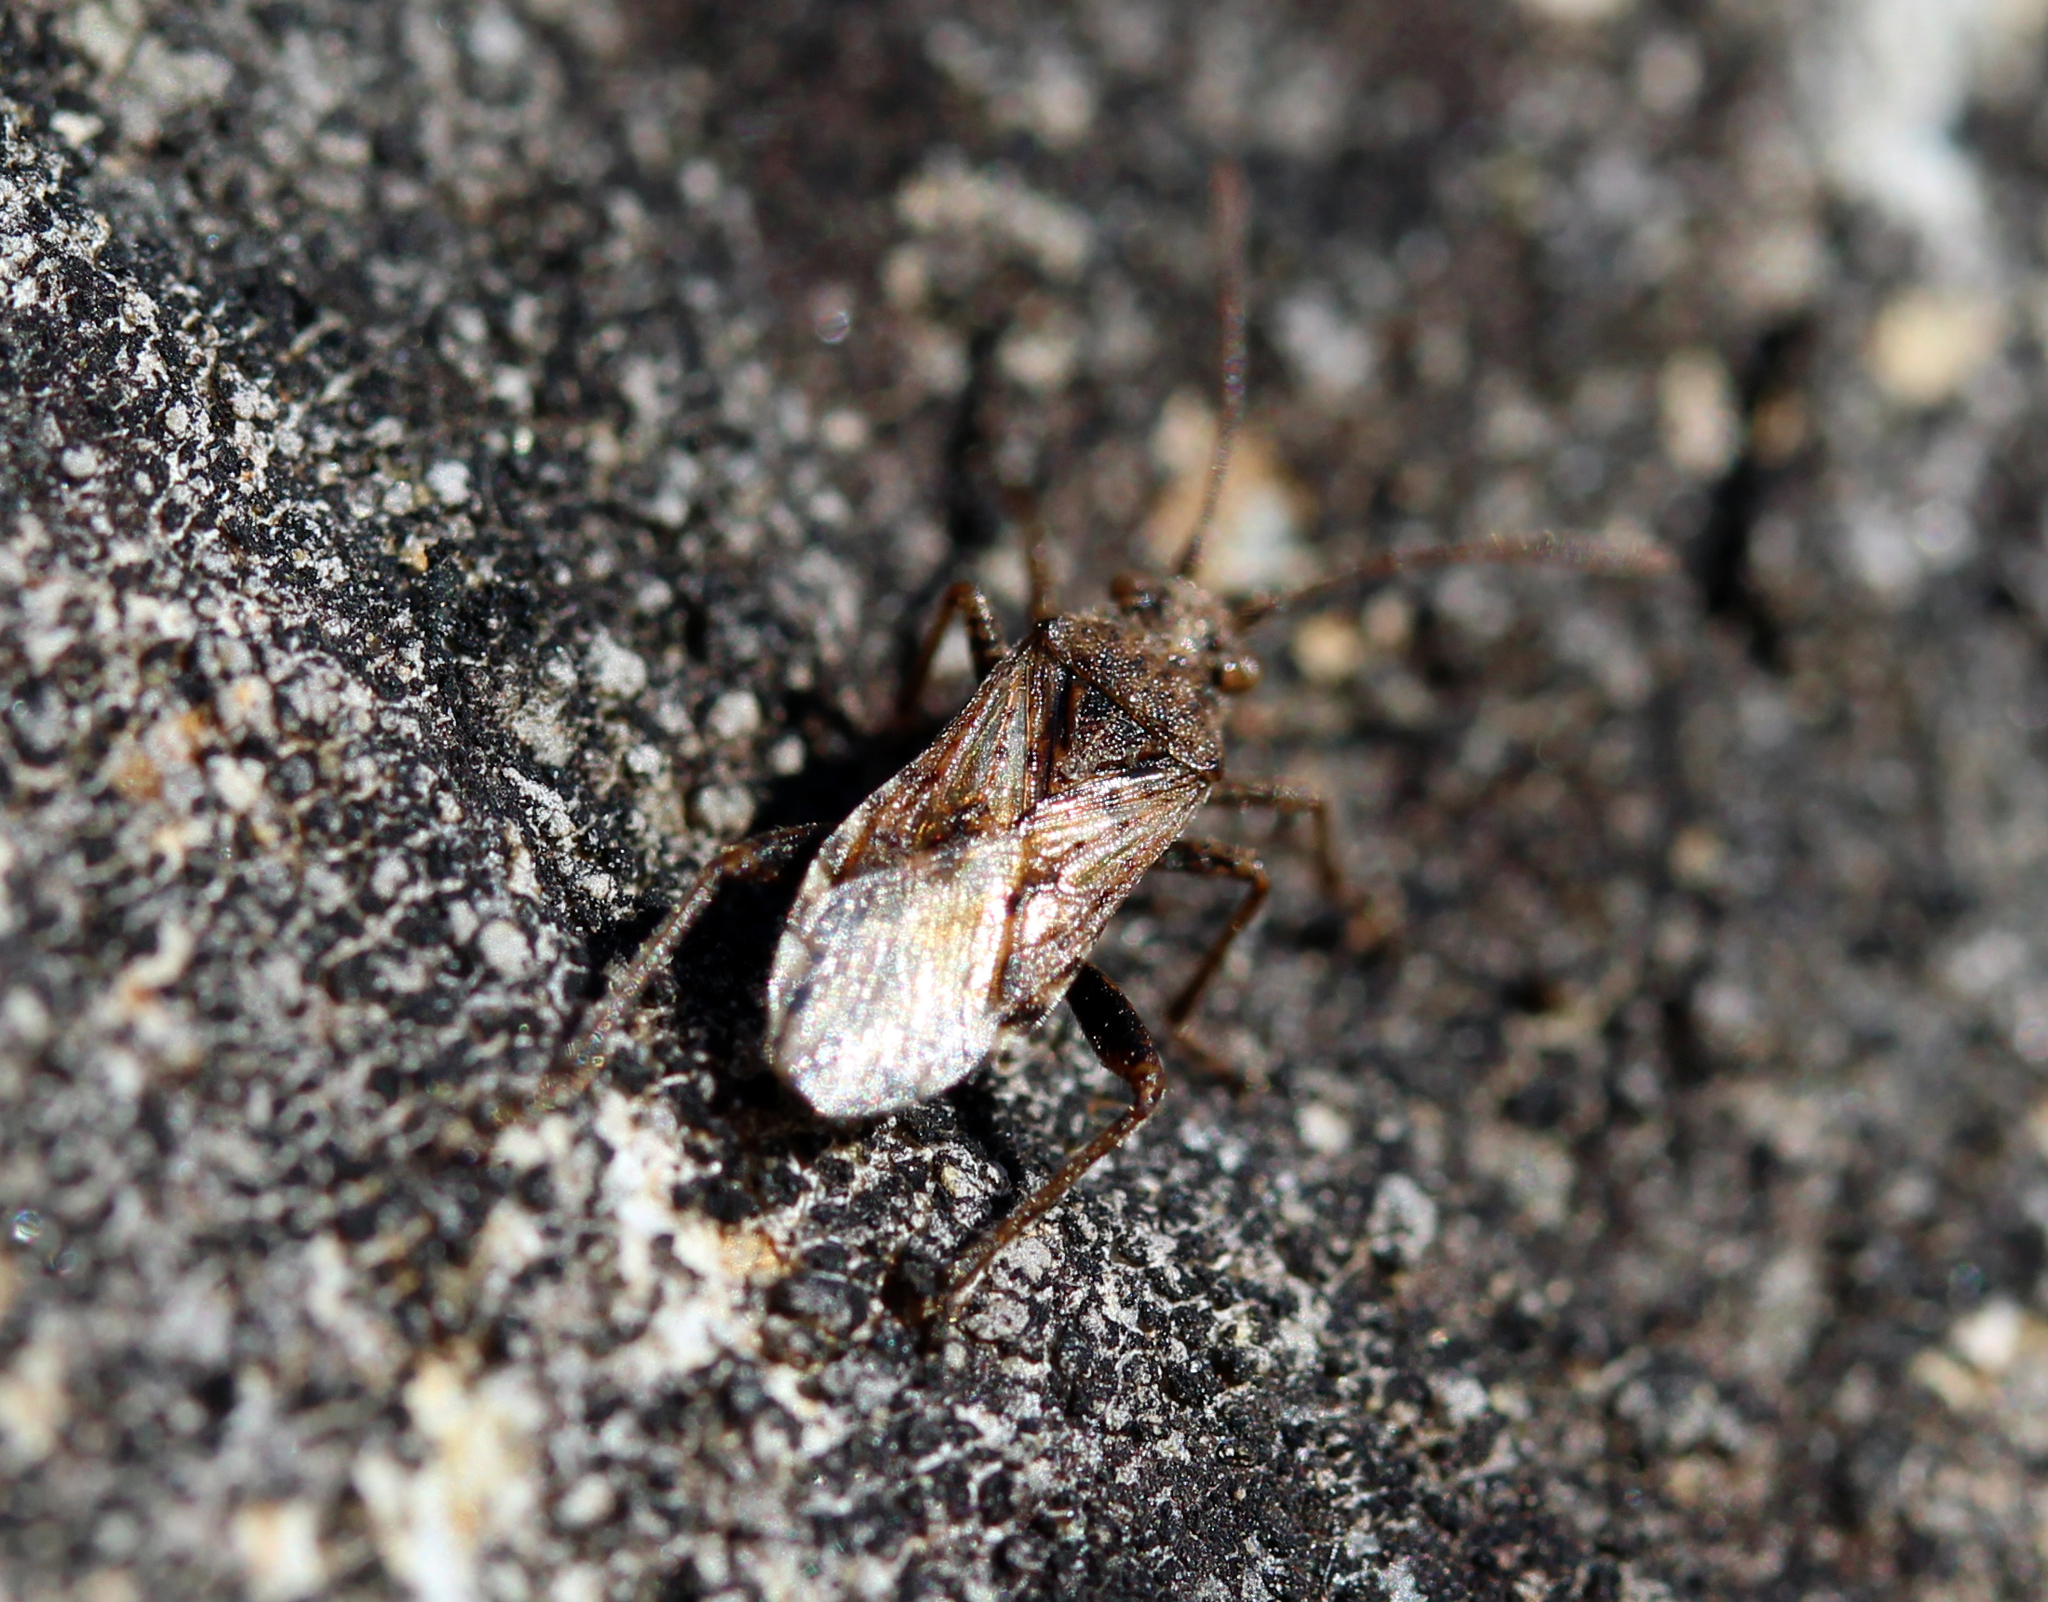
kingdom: Animalia
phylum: Arthropoda
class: Insecta
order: Hemiptera
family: Lygaeidae
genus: Neortholomus
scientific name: Neortholomus scolopax
